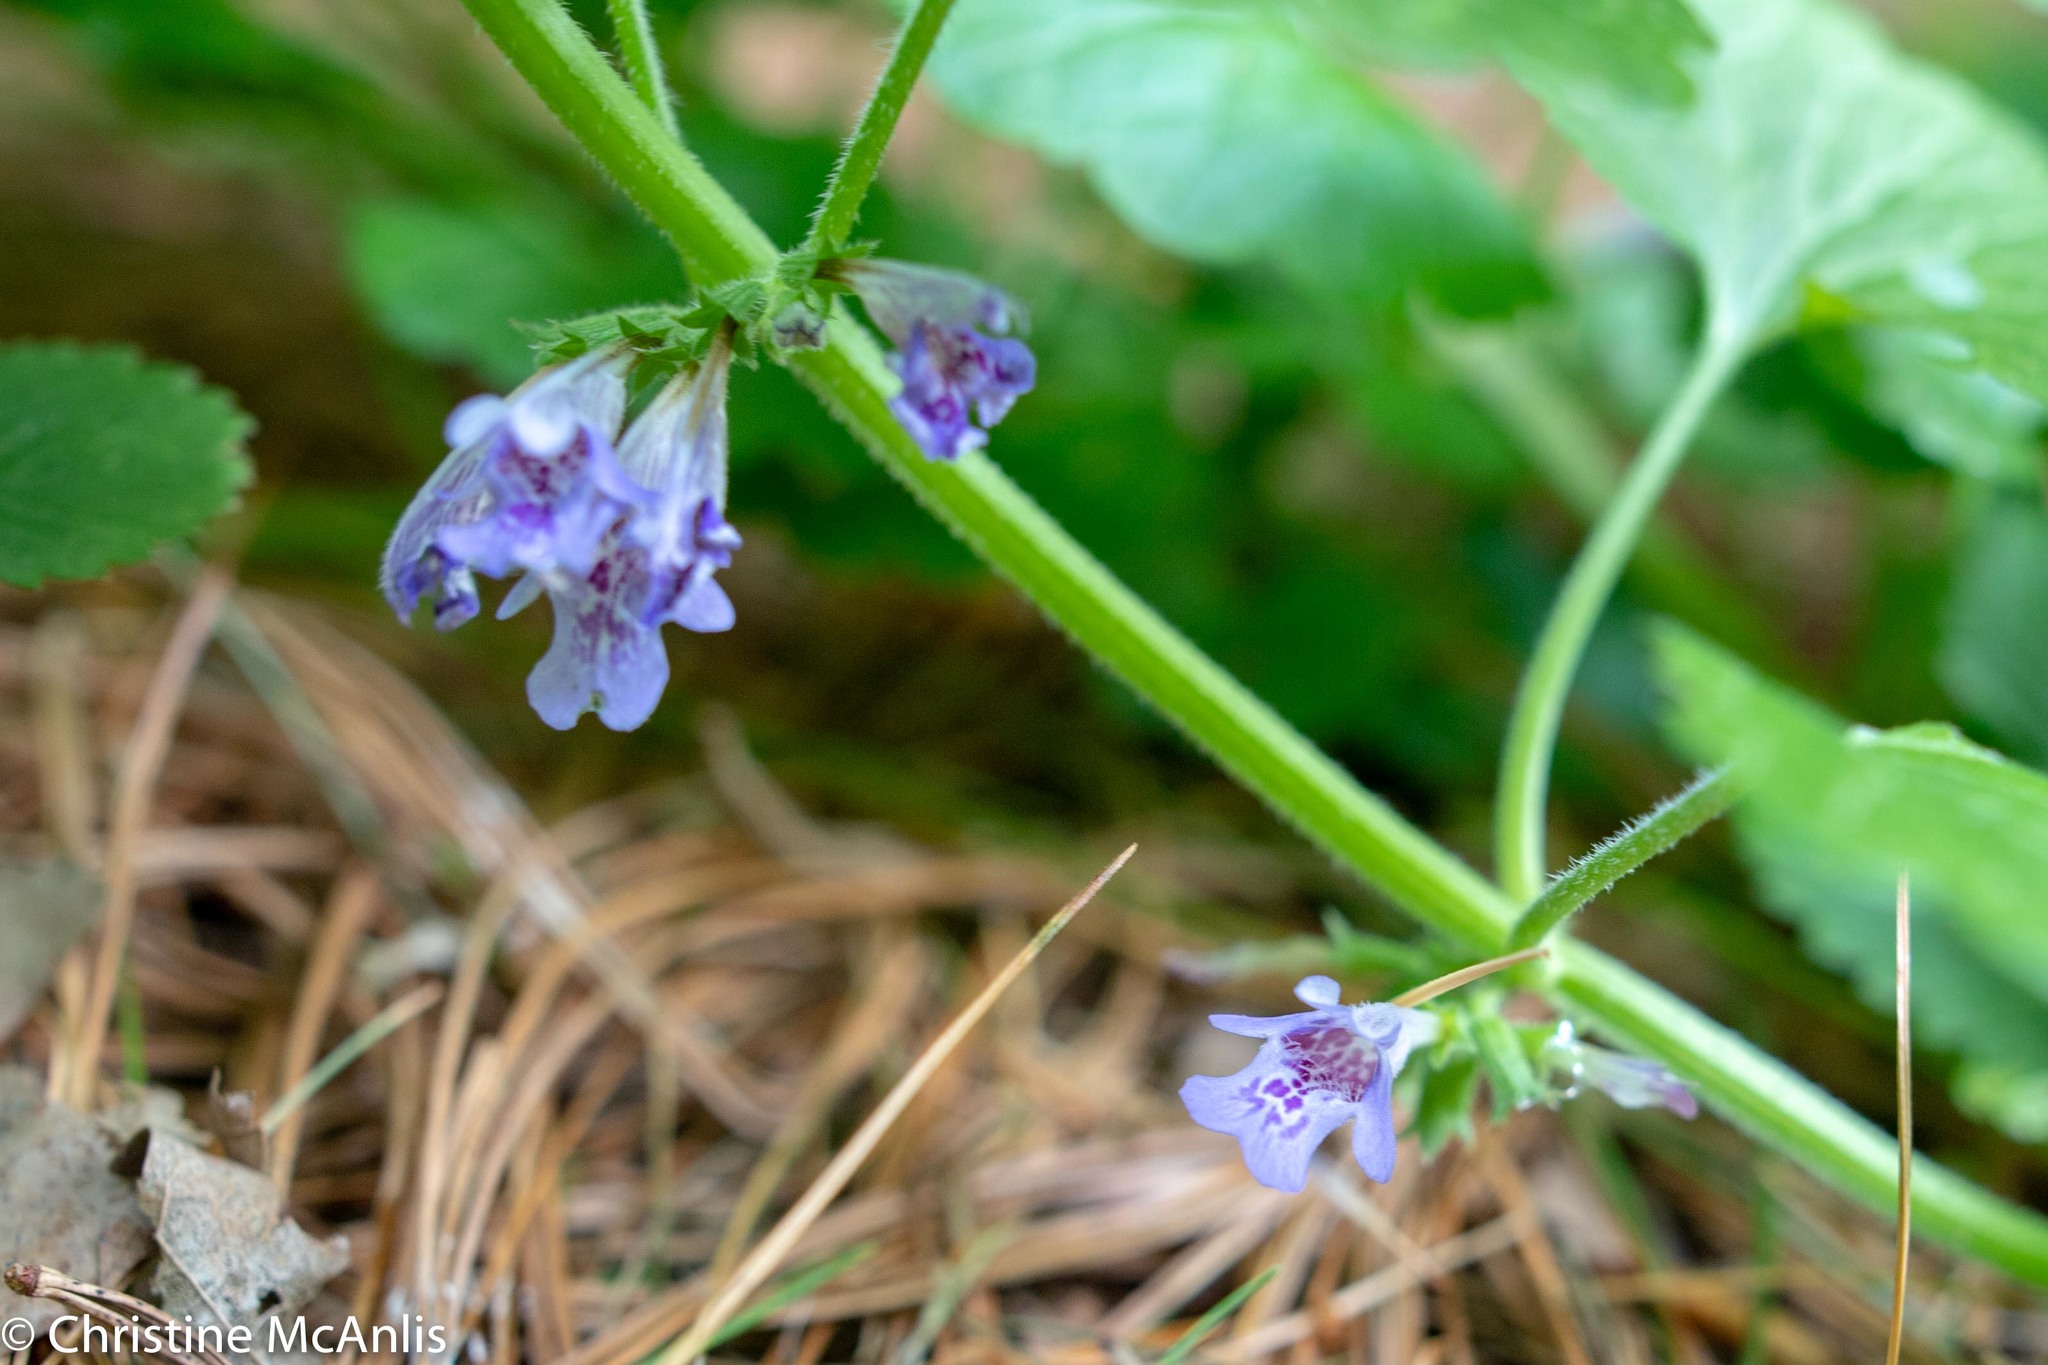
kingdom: Plantae
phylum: Tracheophyta
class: Magnoliopsida
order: Lamiales
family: Lamiaceae
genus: Glechoma
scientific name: Glechoma hederacea
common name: Ground ivy
